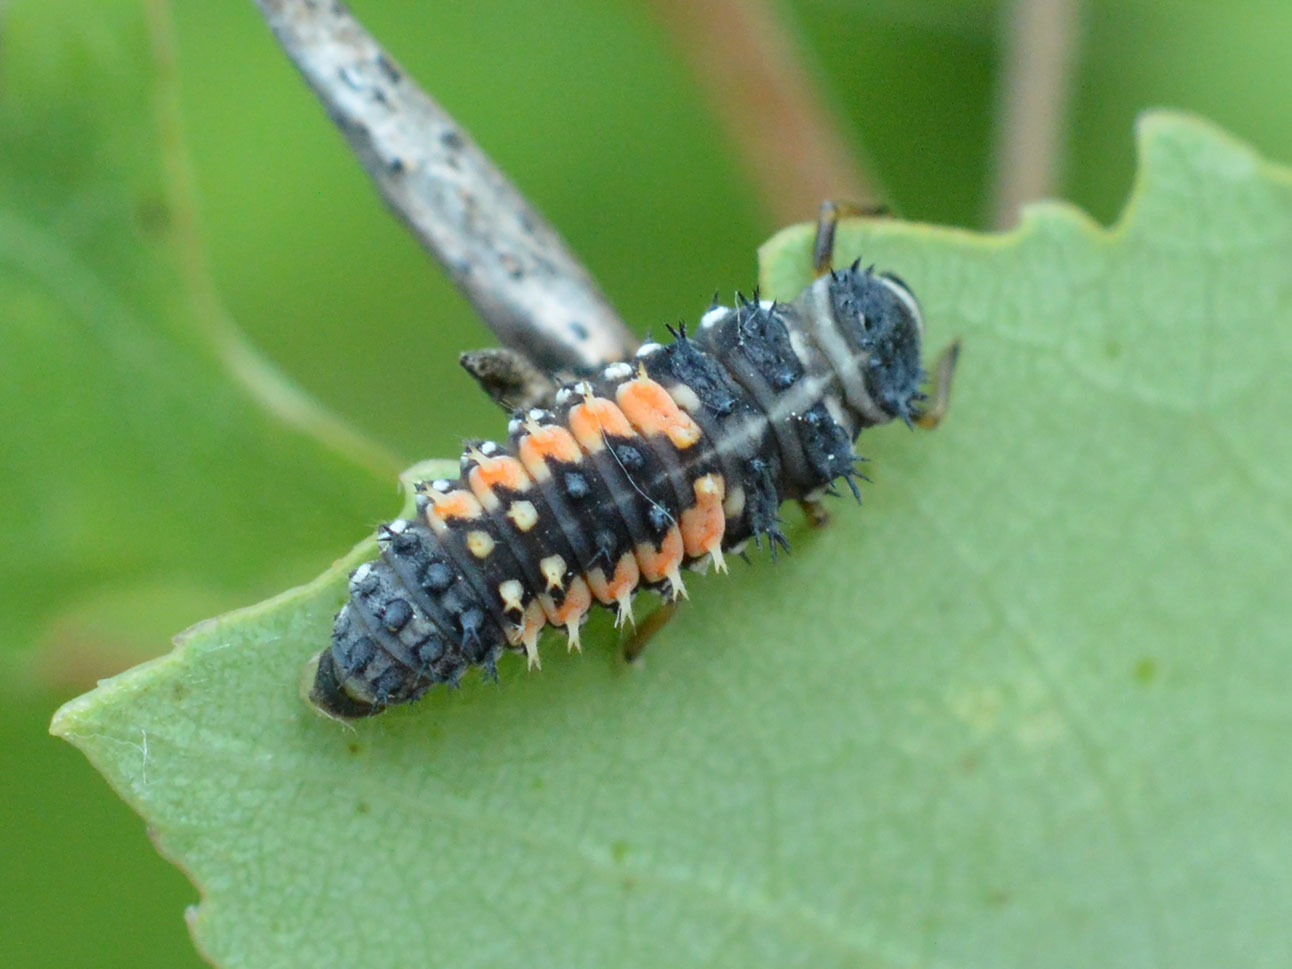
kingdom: Animalia
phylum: Arthropoda
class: Insecta
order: Coleoptera
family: Coccinellidae
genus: Harmonia
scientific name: Harmonia axyridis
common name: Harlequin ladybird
